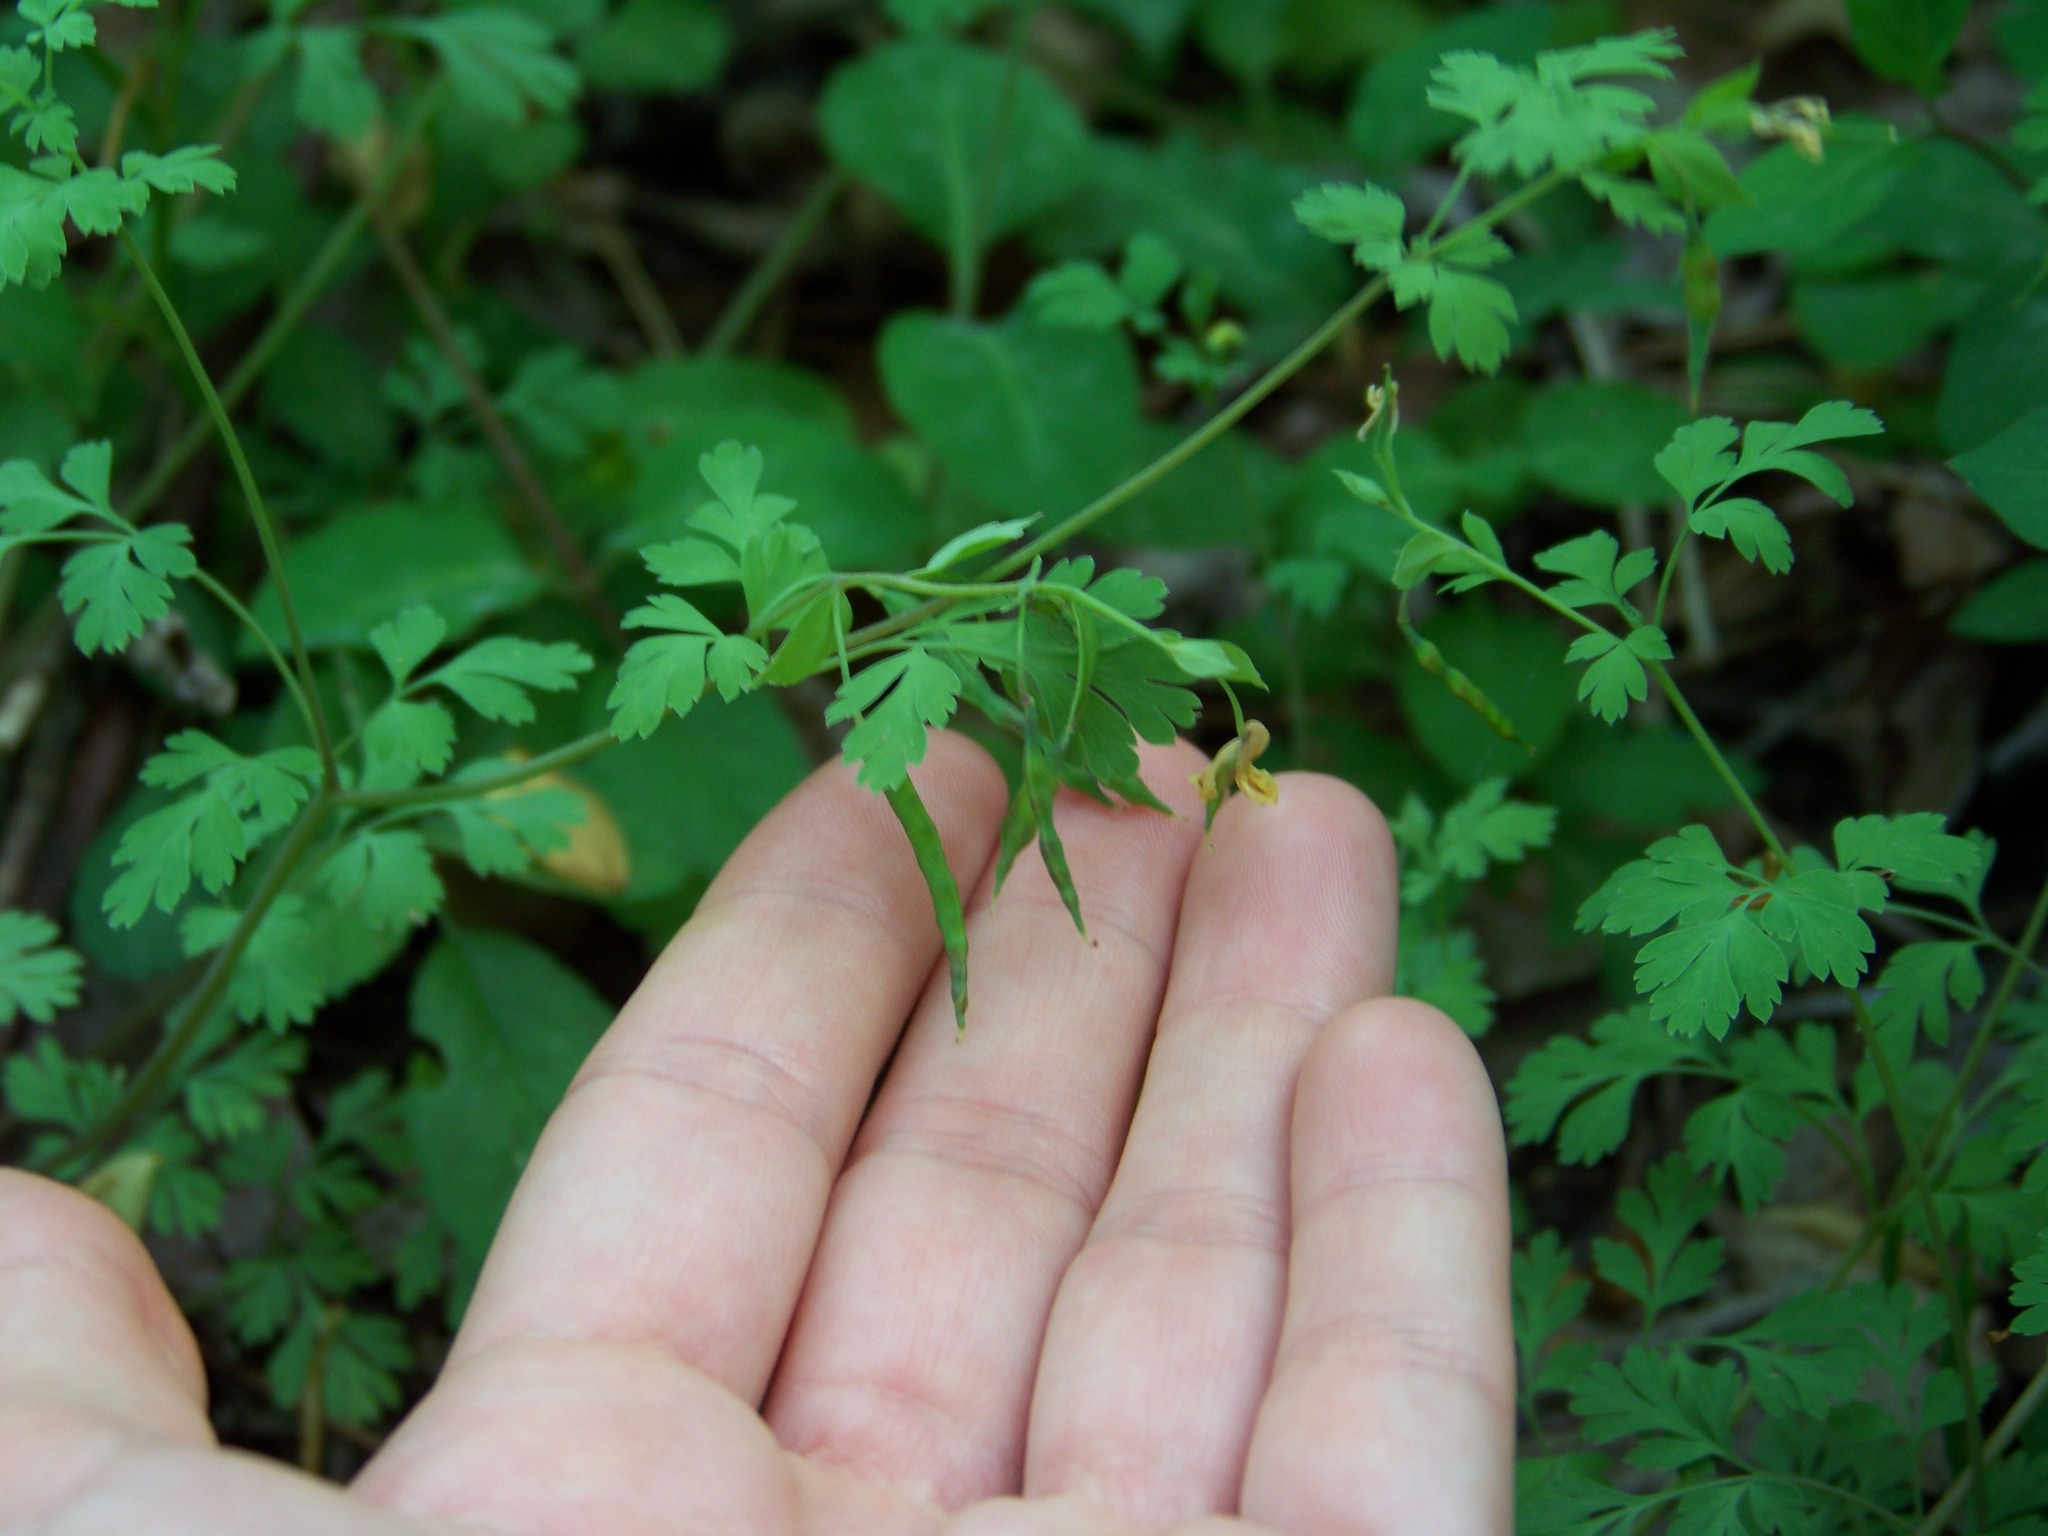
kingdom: Plantae
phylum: Tracheophyta
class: Magnoliopsida
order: Ranunculales
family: Papaveraceae
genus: Corydalis
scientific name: Corydalis flavula
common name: Yellow corydalis
